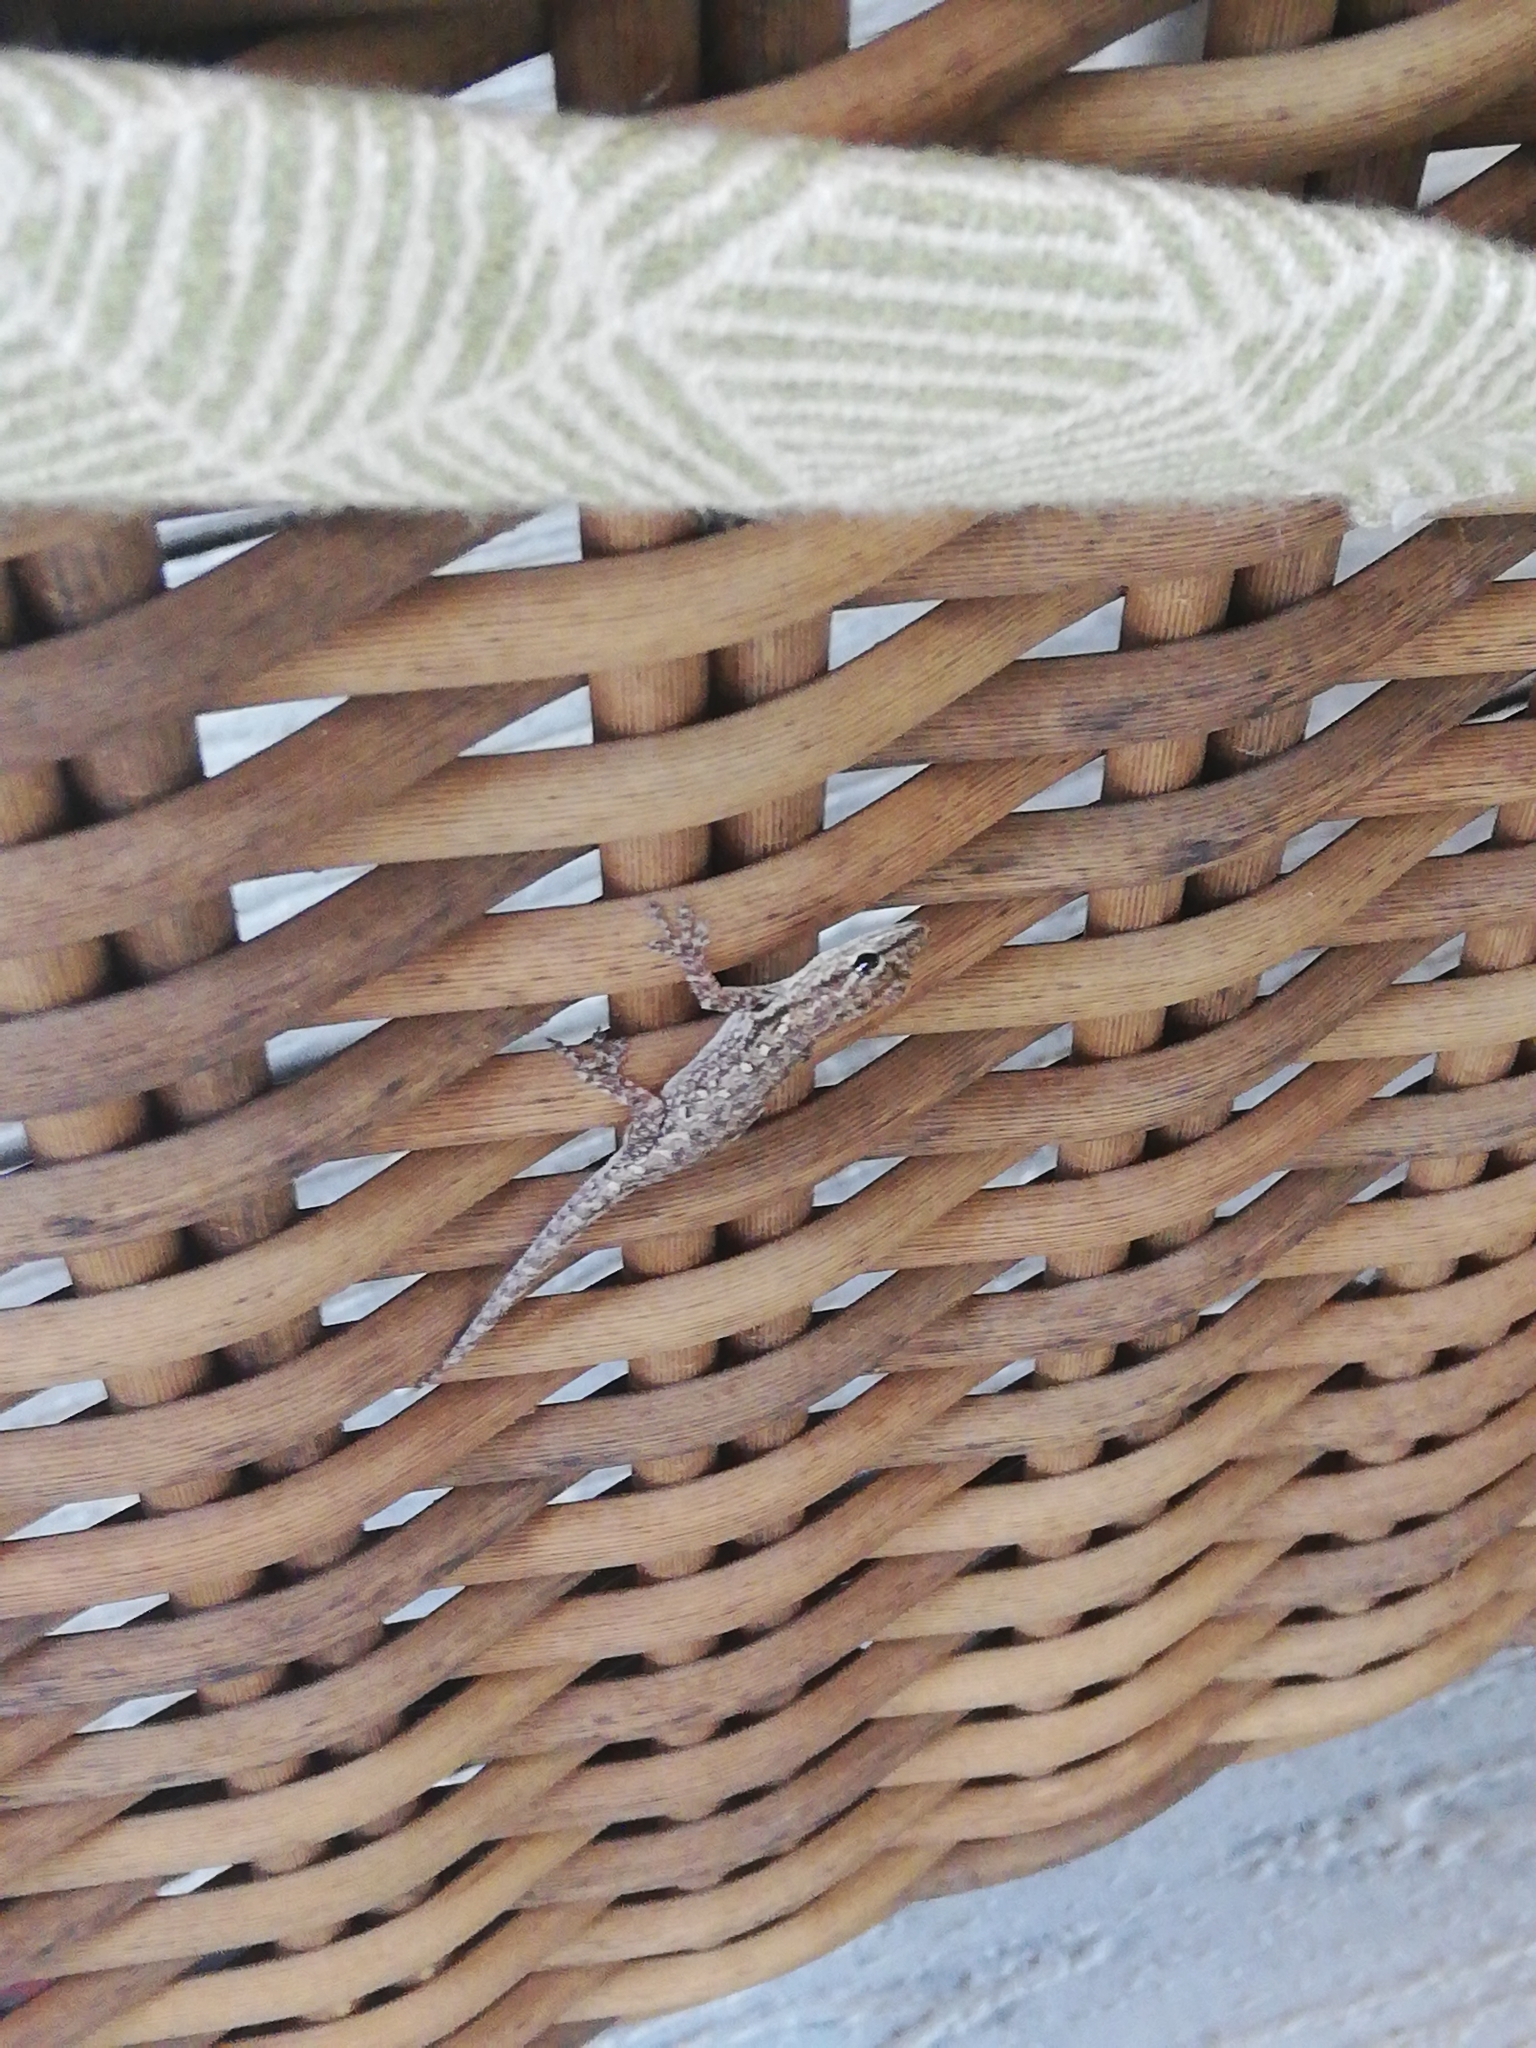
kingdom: Animalia
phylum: Chordata
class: Squamata
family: Gekkonidae
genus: Lygodactylus
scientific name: Lygodactylus chobiensis
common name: Okavango dwarf gecko
